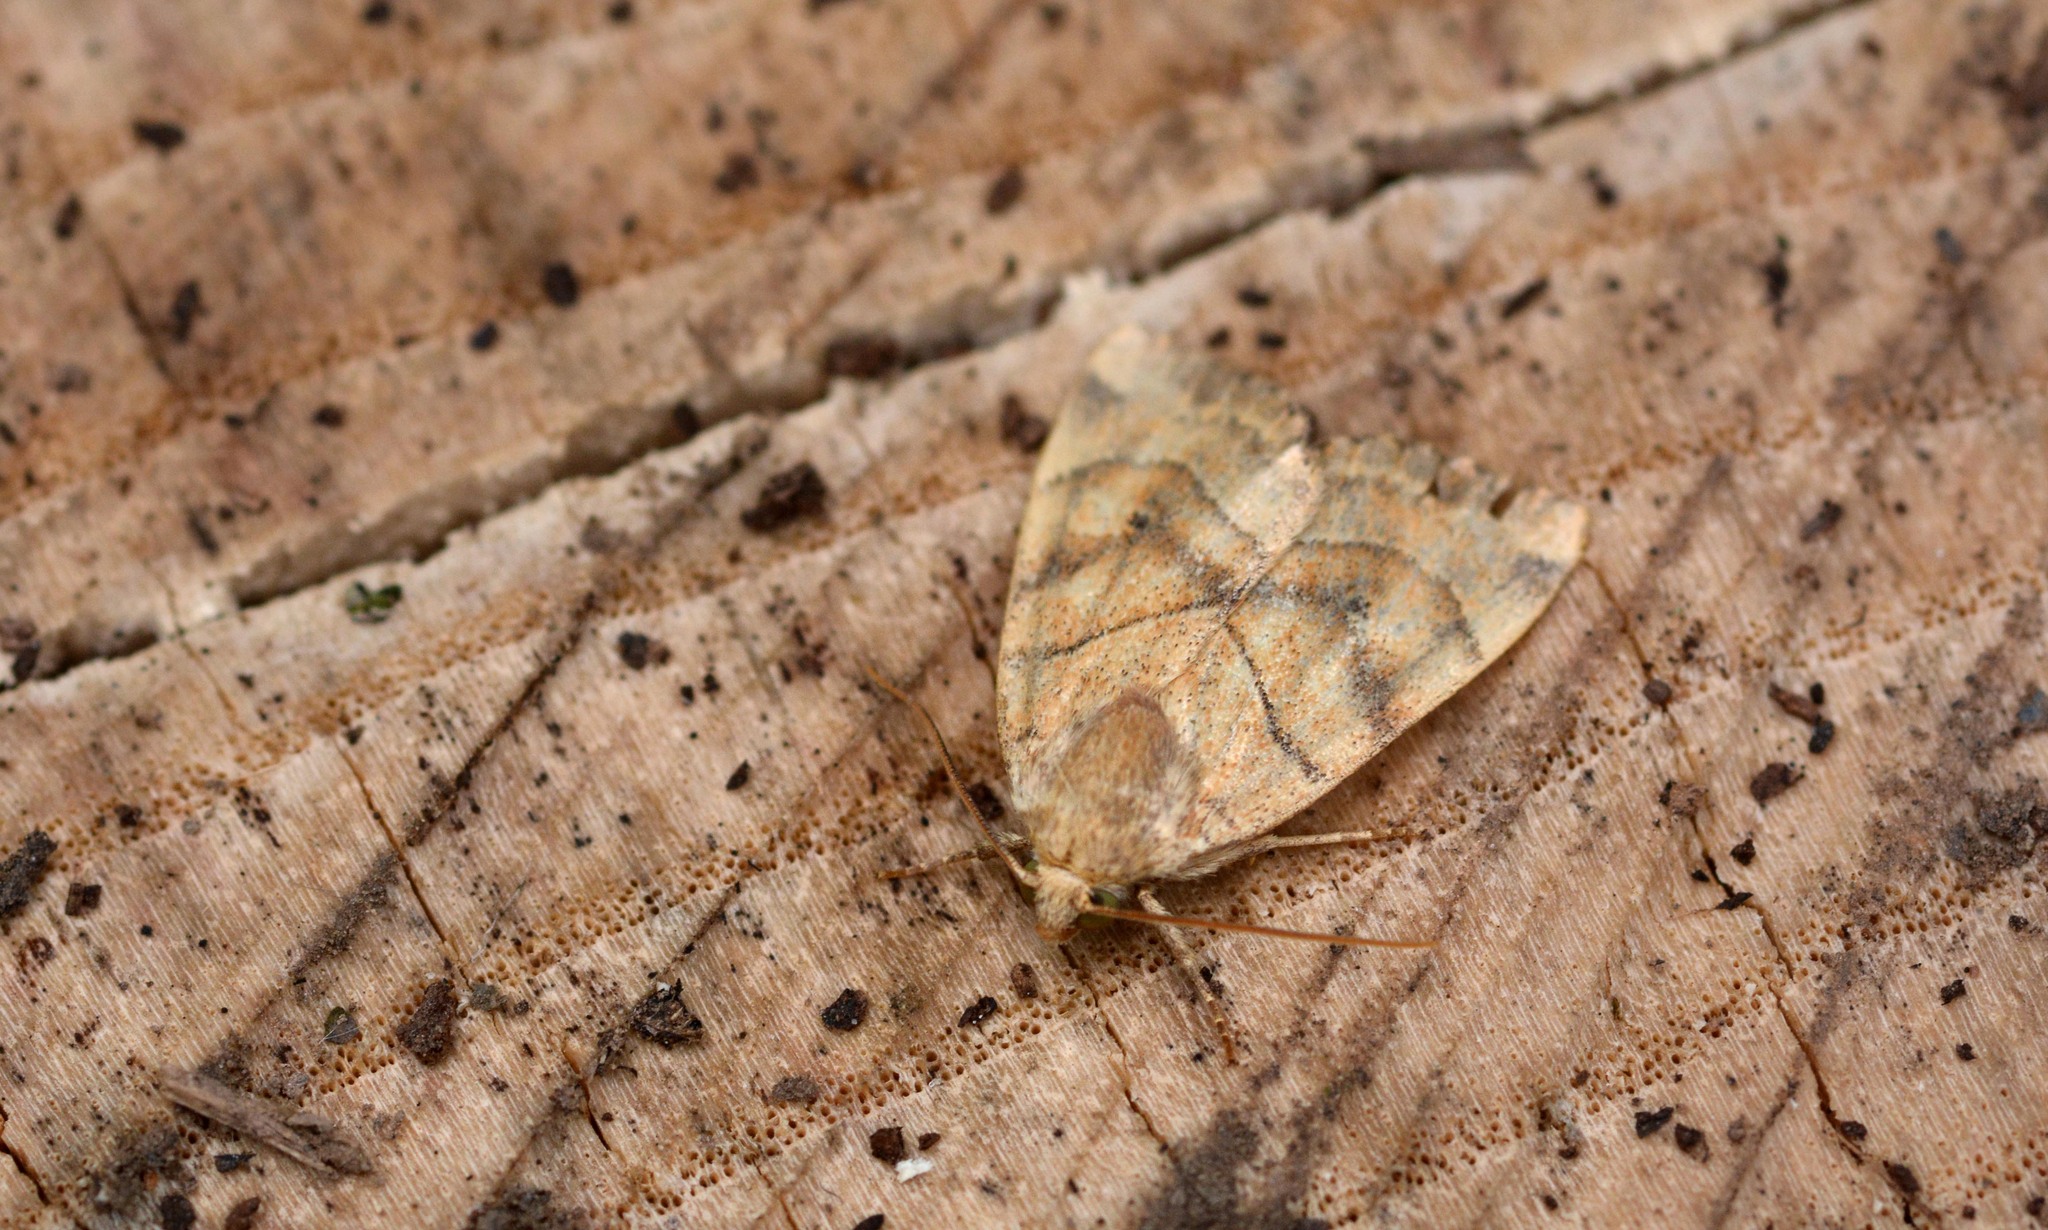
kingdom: Animalia
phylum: Arthropoda
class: Insecta
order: Lepidoptera
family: Noctuidae
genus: Cosmia
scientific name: Cosmia trapezina
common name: Dun-bar
